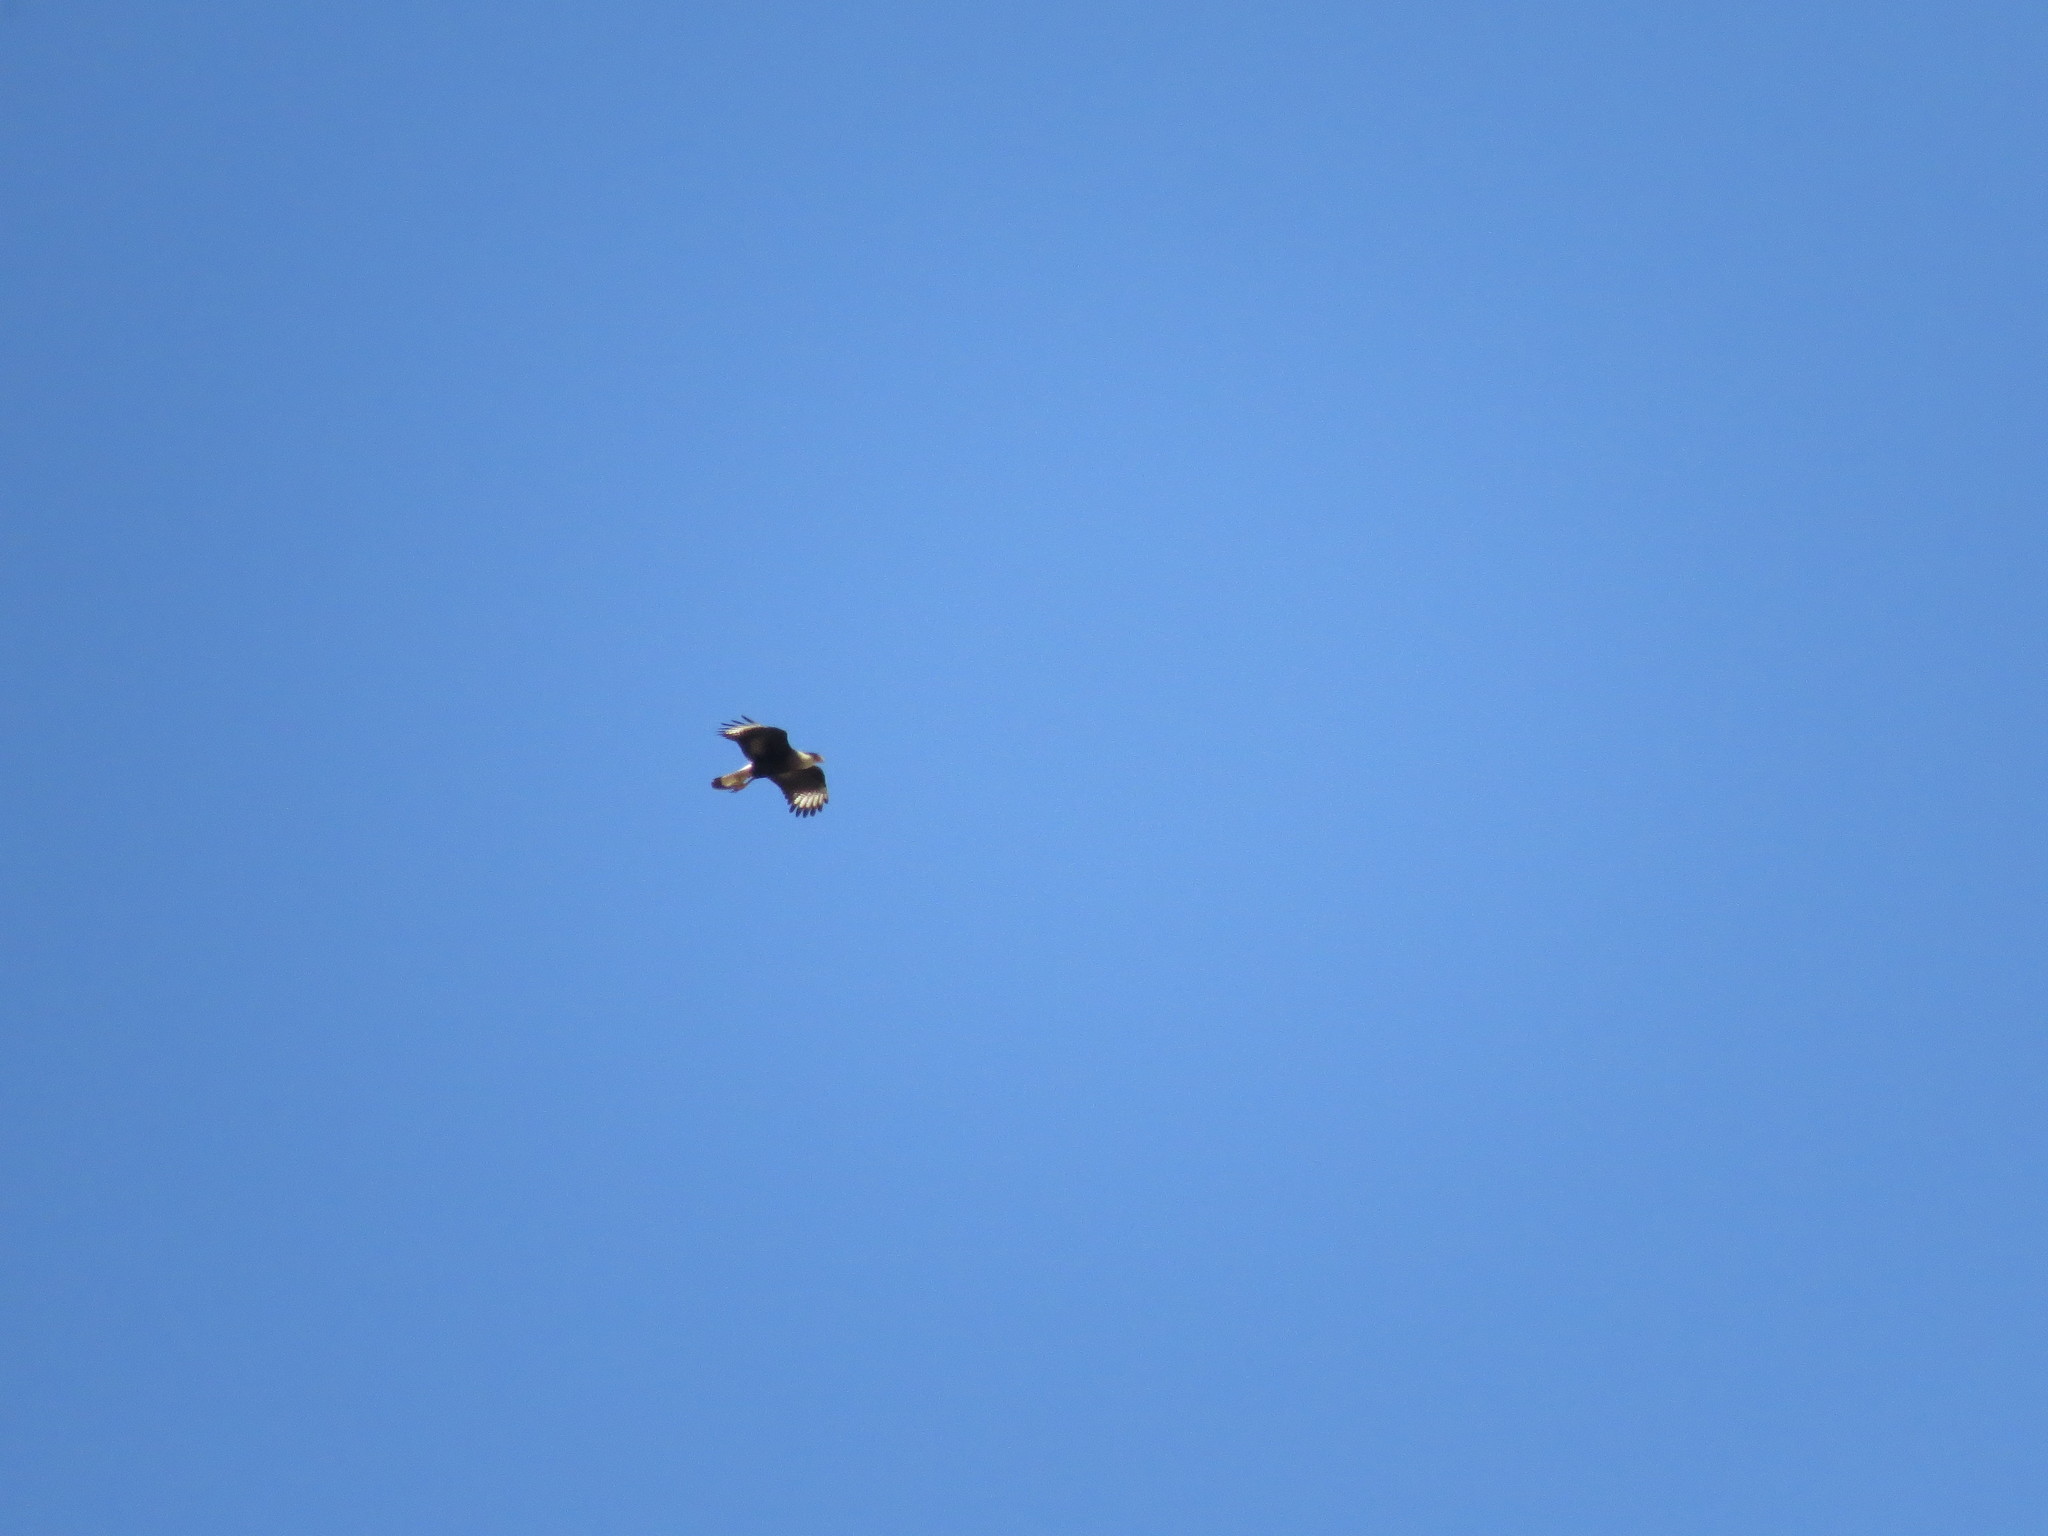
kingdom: Animalia
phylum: Chordata
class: Aves
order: Falconiformes
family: Falconidae
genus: Caracara
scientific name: Caracara plancus
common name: Southern caracara
